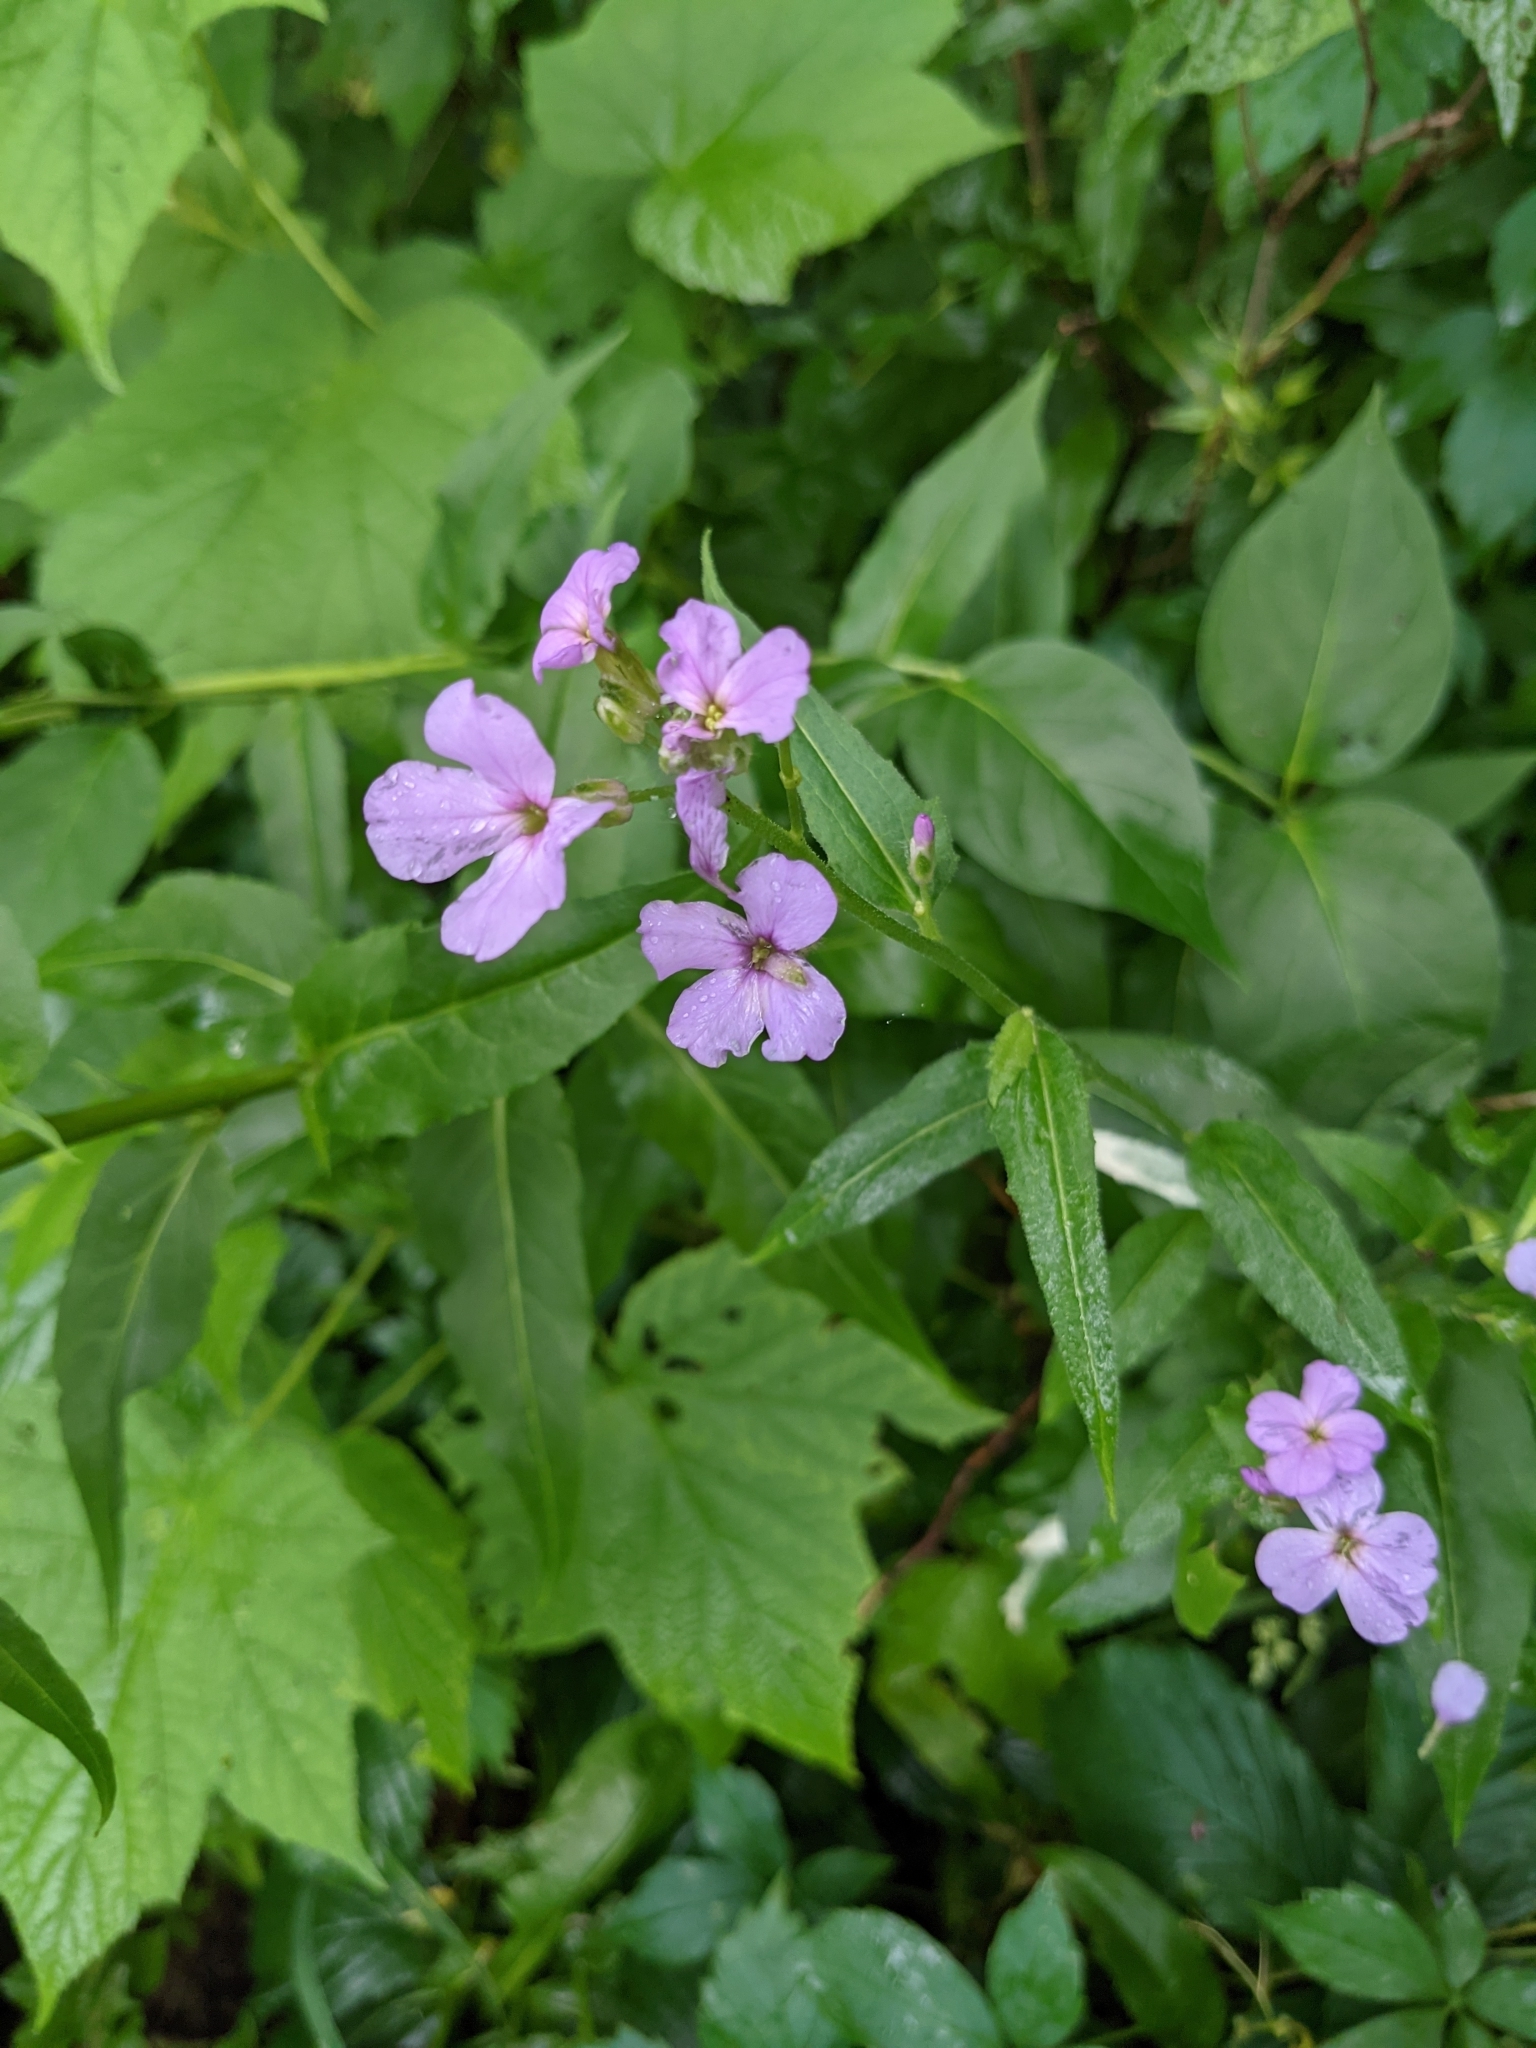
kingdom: Plantae
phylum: Tracheophyta
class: Magnoliopsida
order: Brassicales
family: Brassicaceae
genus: Hesperis
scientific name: Hesperis matronalis
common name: Dame's-violet
